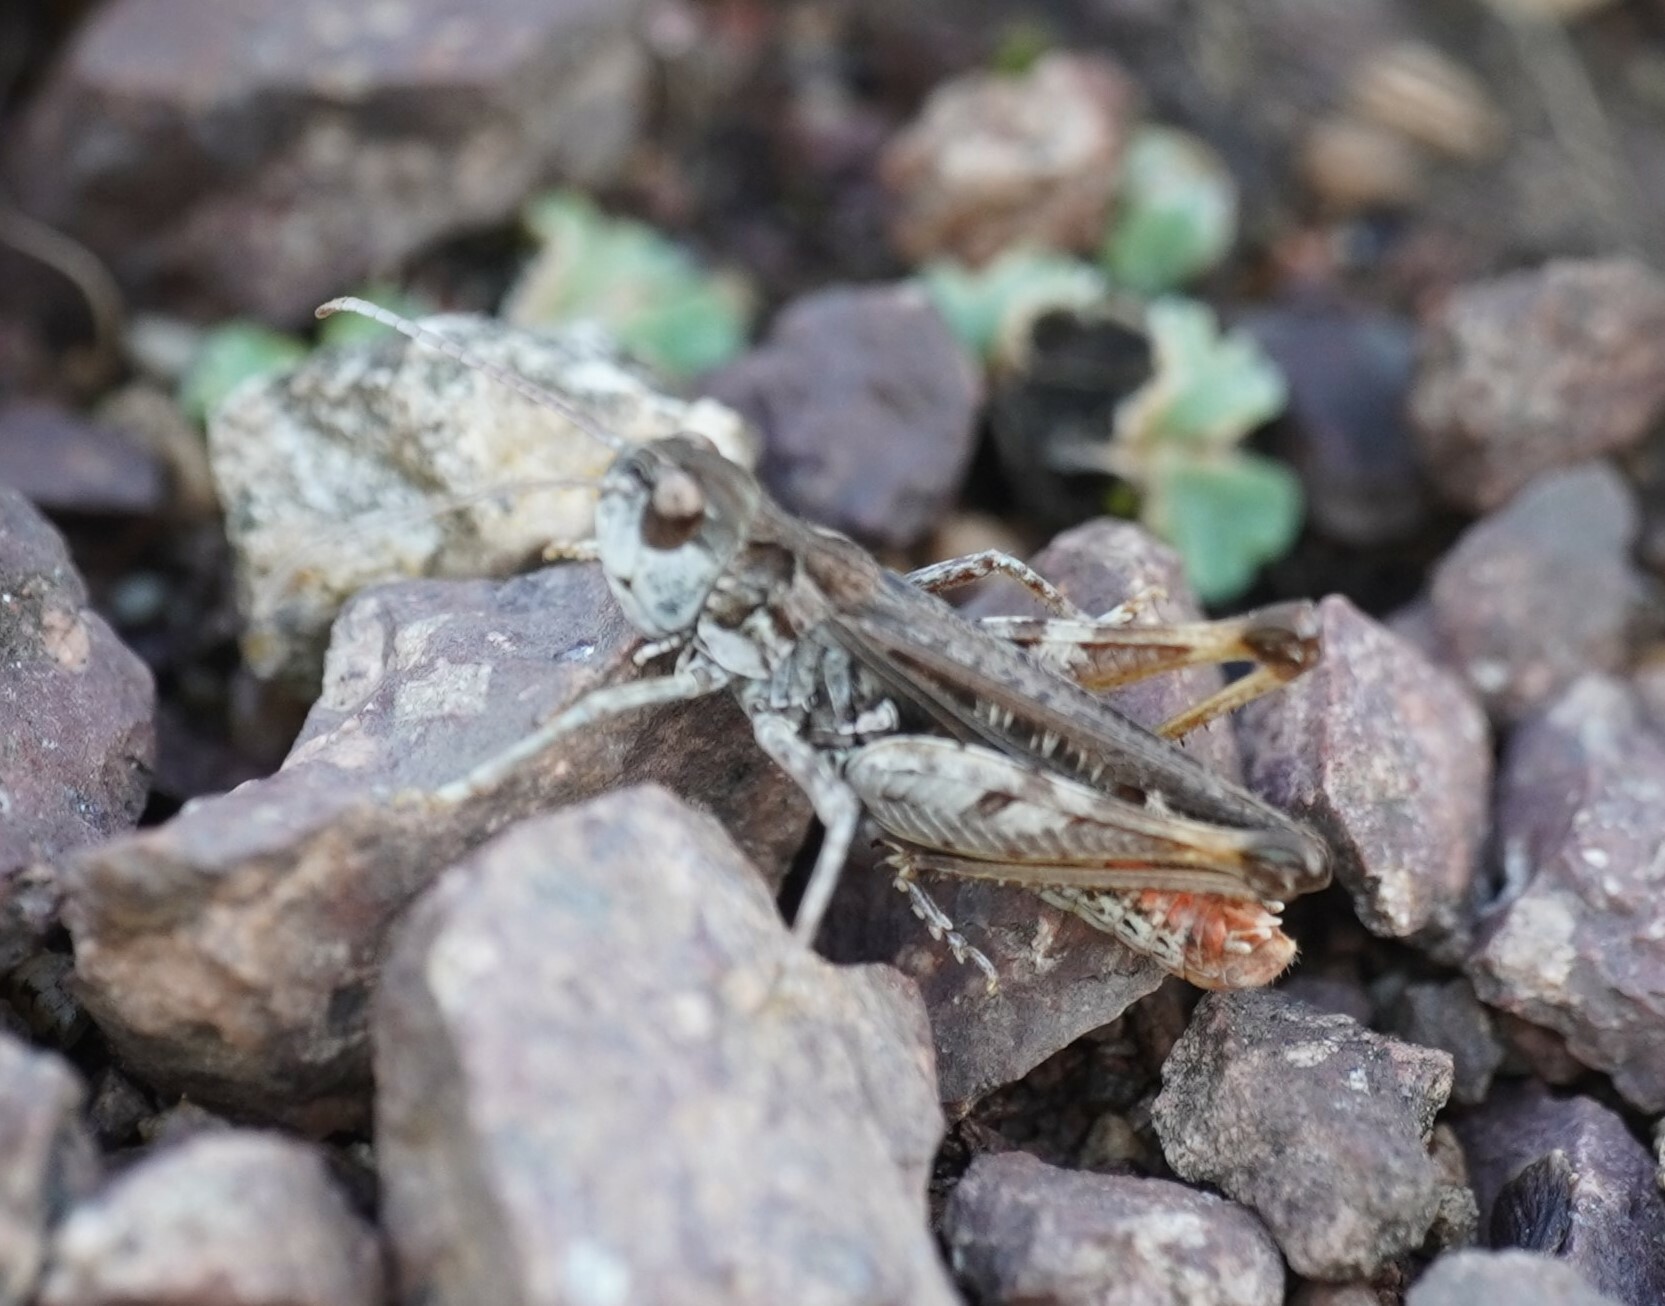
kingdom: Animalia
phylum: Arthropoda
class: Insecta
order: Orthoptera
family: Acrididae
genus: Myrmeleotettix
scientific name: Myrmeleotettix maculatus
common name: Mottled grasshopper
